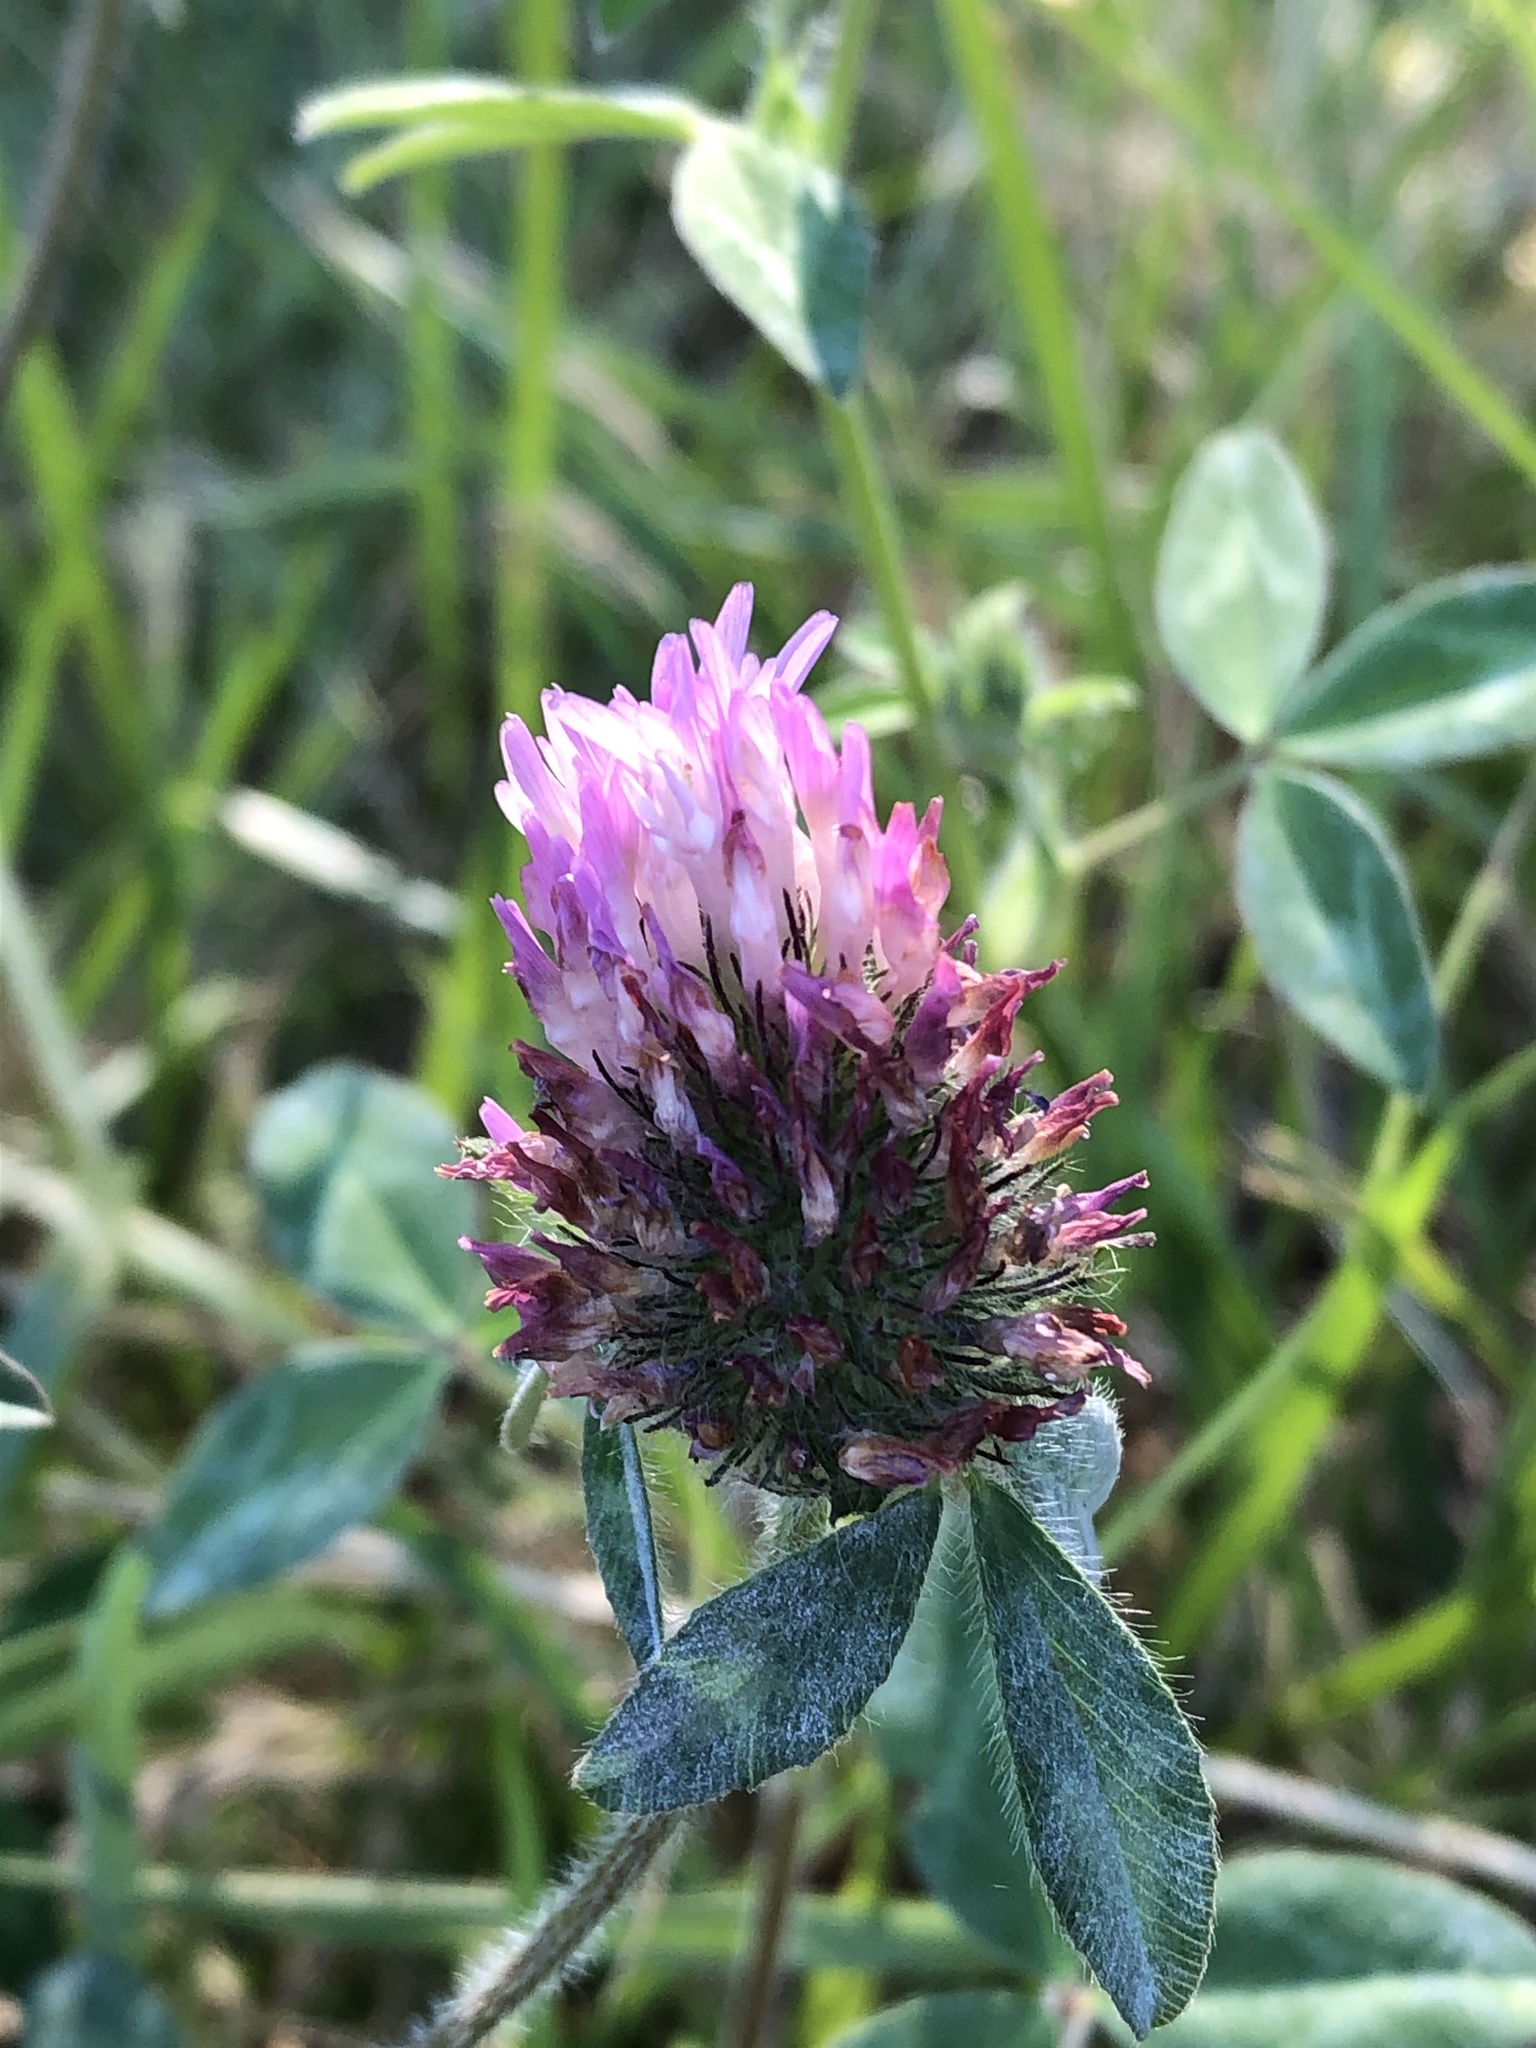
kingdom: Plantae
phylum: Tracheophyta
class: Magnoliopsida
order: Fabales
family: Fabaceae
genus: Trifolium
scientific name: Trifolium pratense
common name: Red clover
